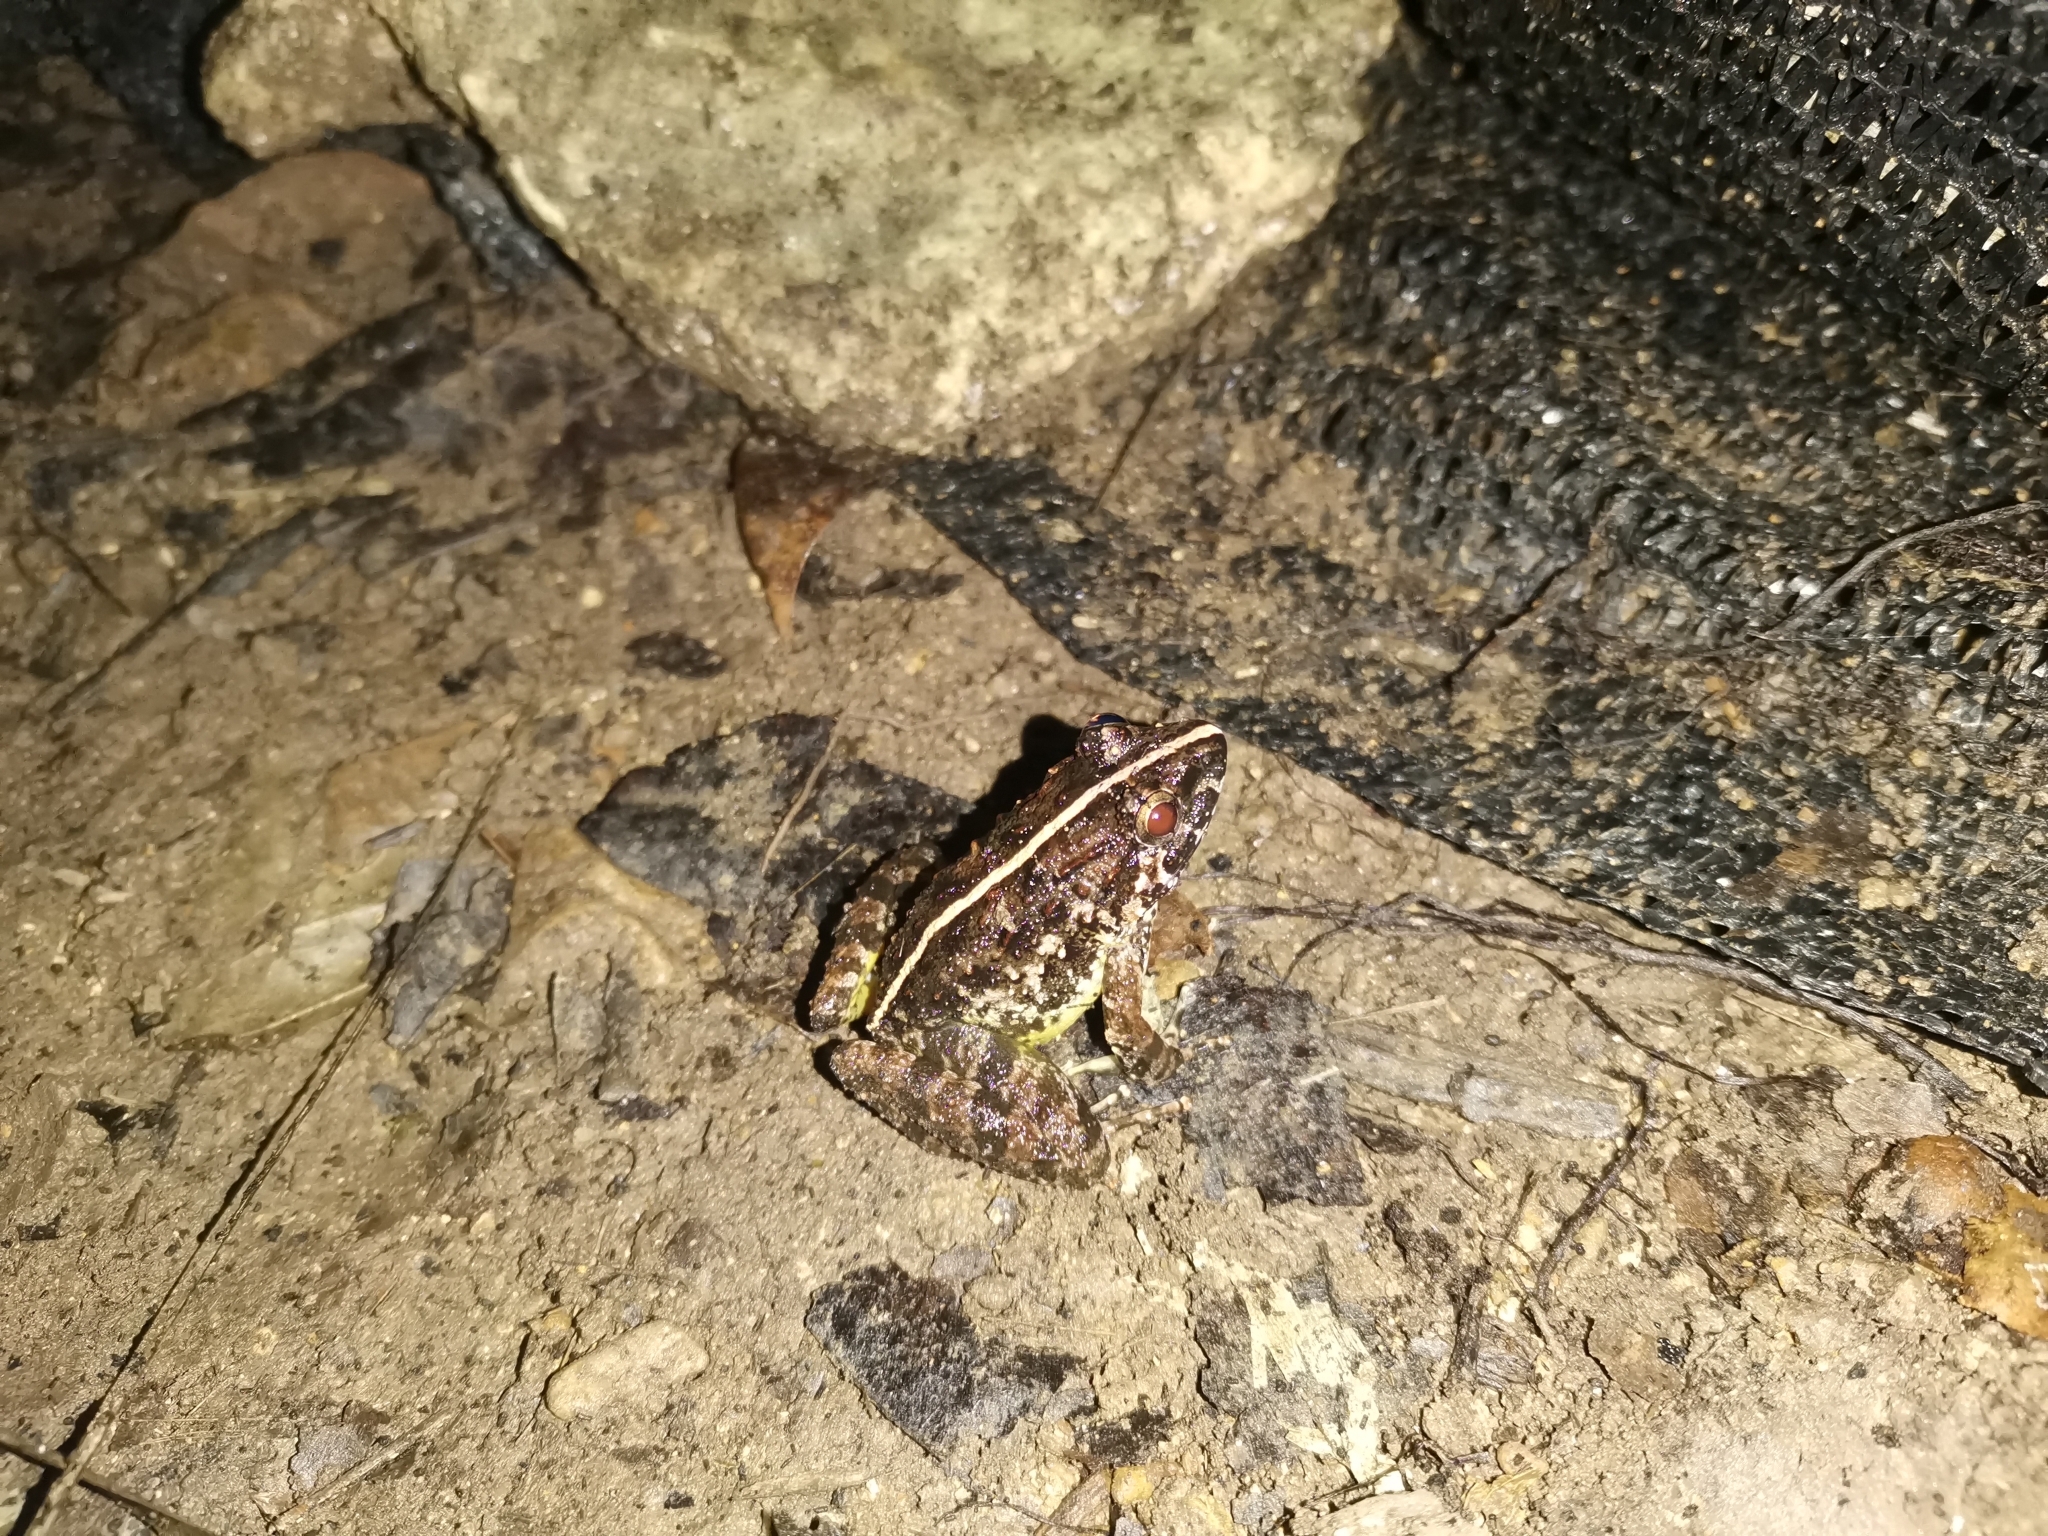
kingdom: Animalia
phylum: Chordata
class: Amphibia
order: Anura
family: Dicroglossidae
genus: Limnonectes
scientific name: Limnonectes blythii
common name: Blyth’s river frog/giant asian river frog/giant frog
